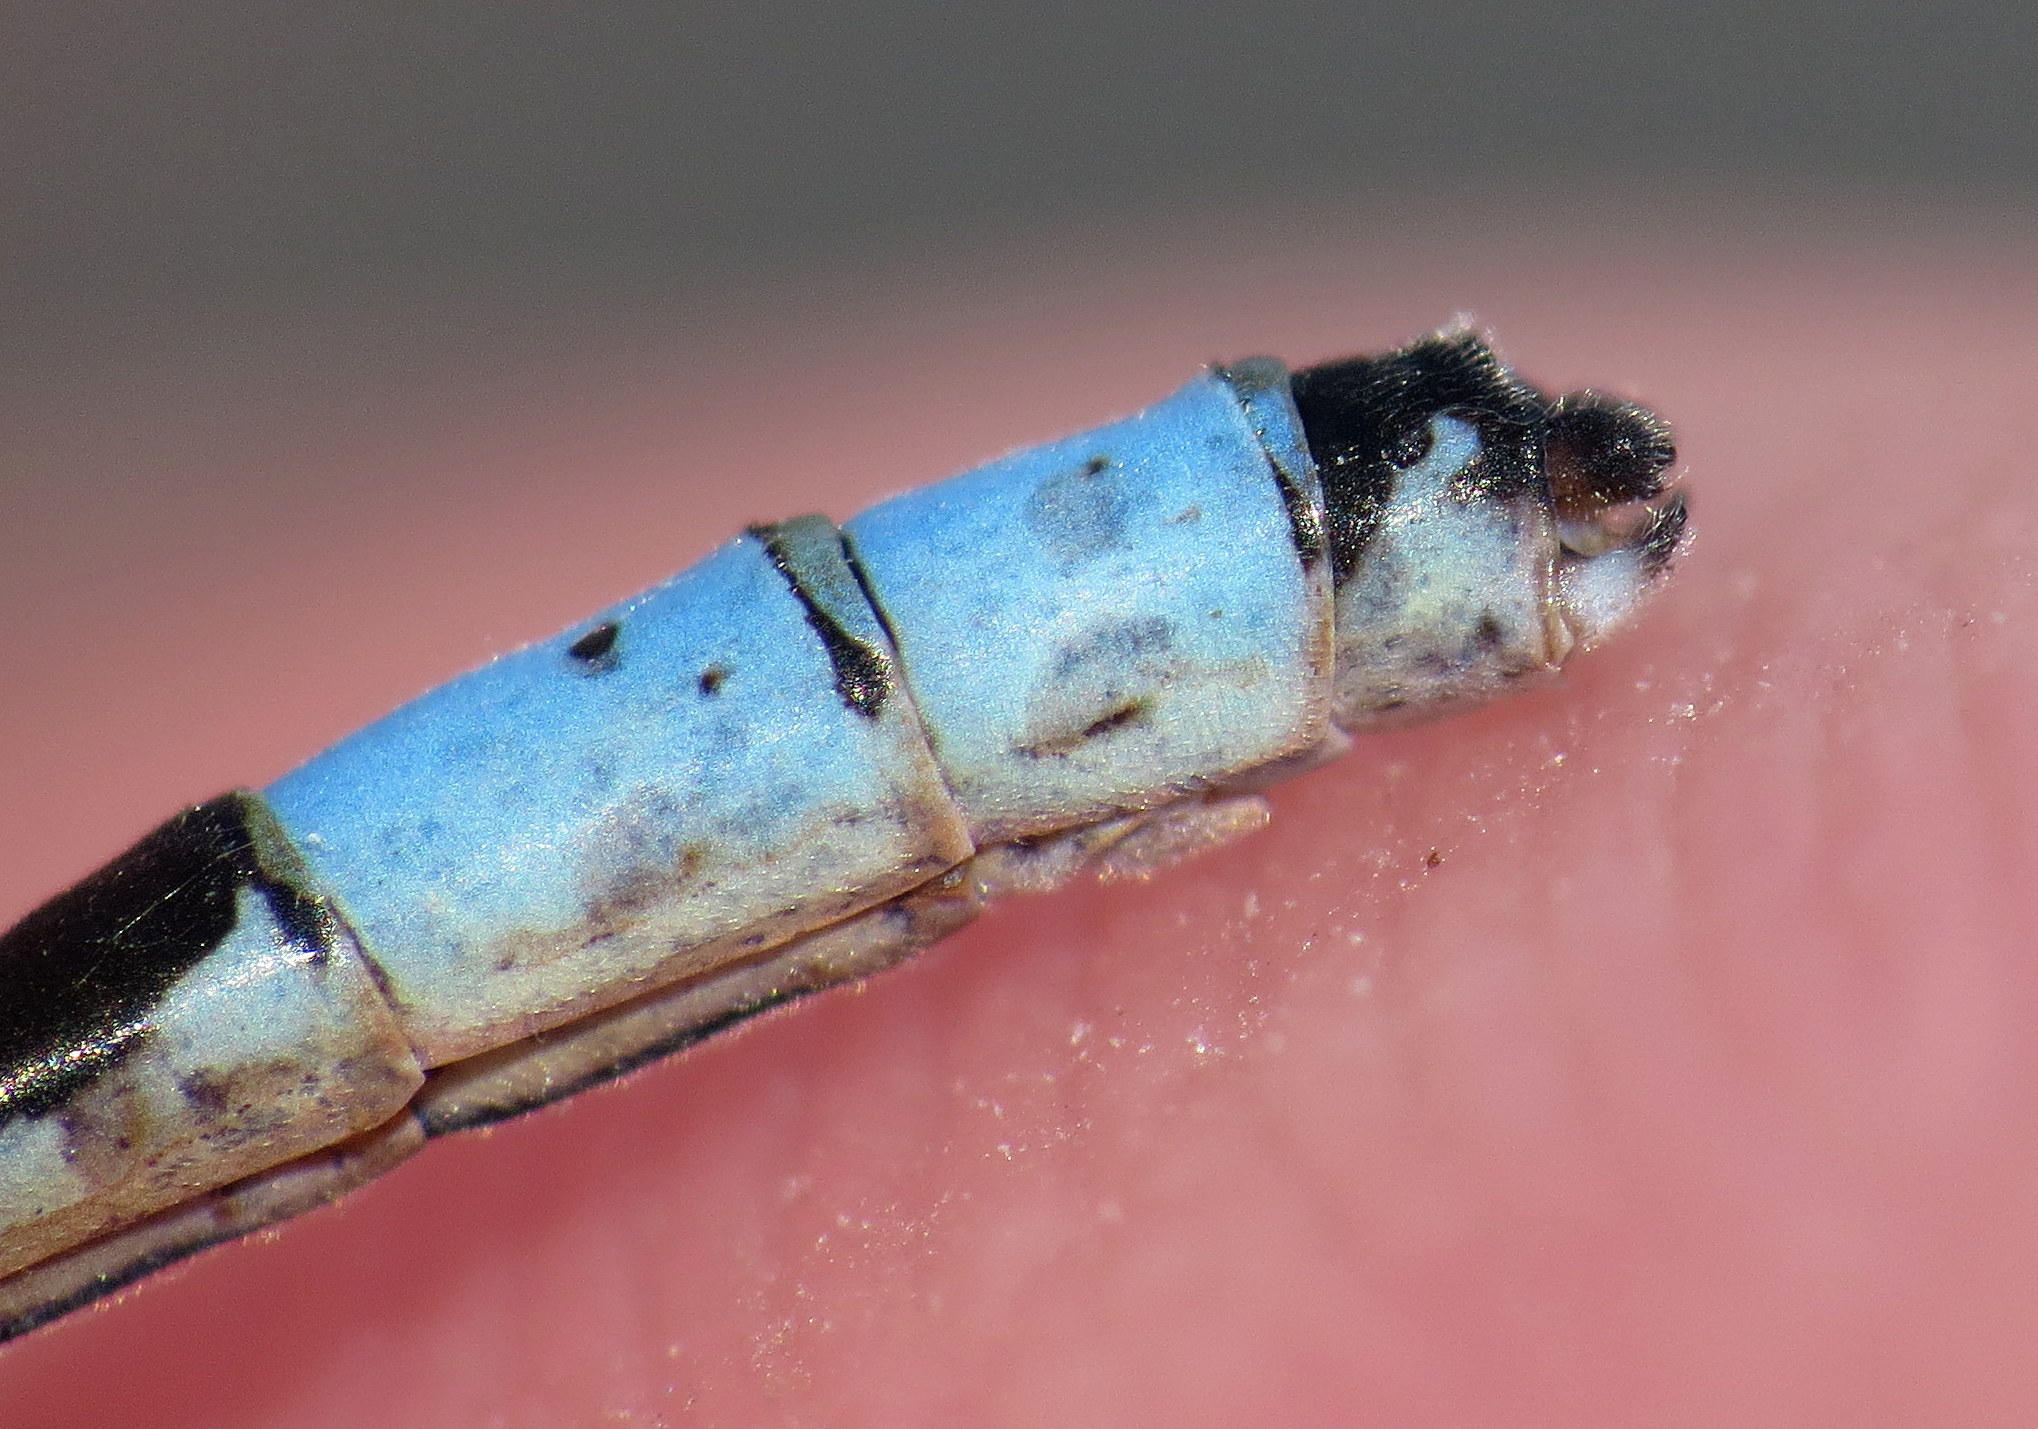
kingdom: Animalia
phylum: Arthropoda
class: Insecta
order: Odonata
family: Coenagrionidae
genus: Enallagma
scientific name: Enallagma boreale
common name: Boreal bluet
